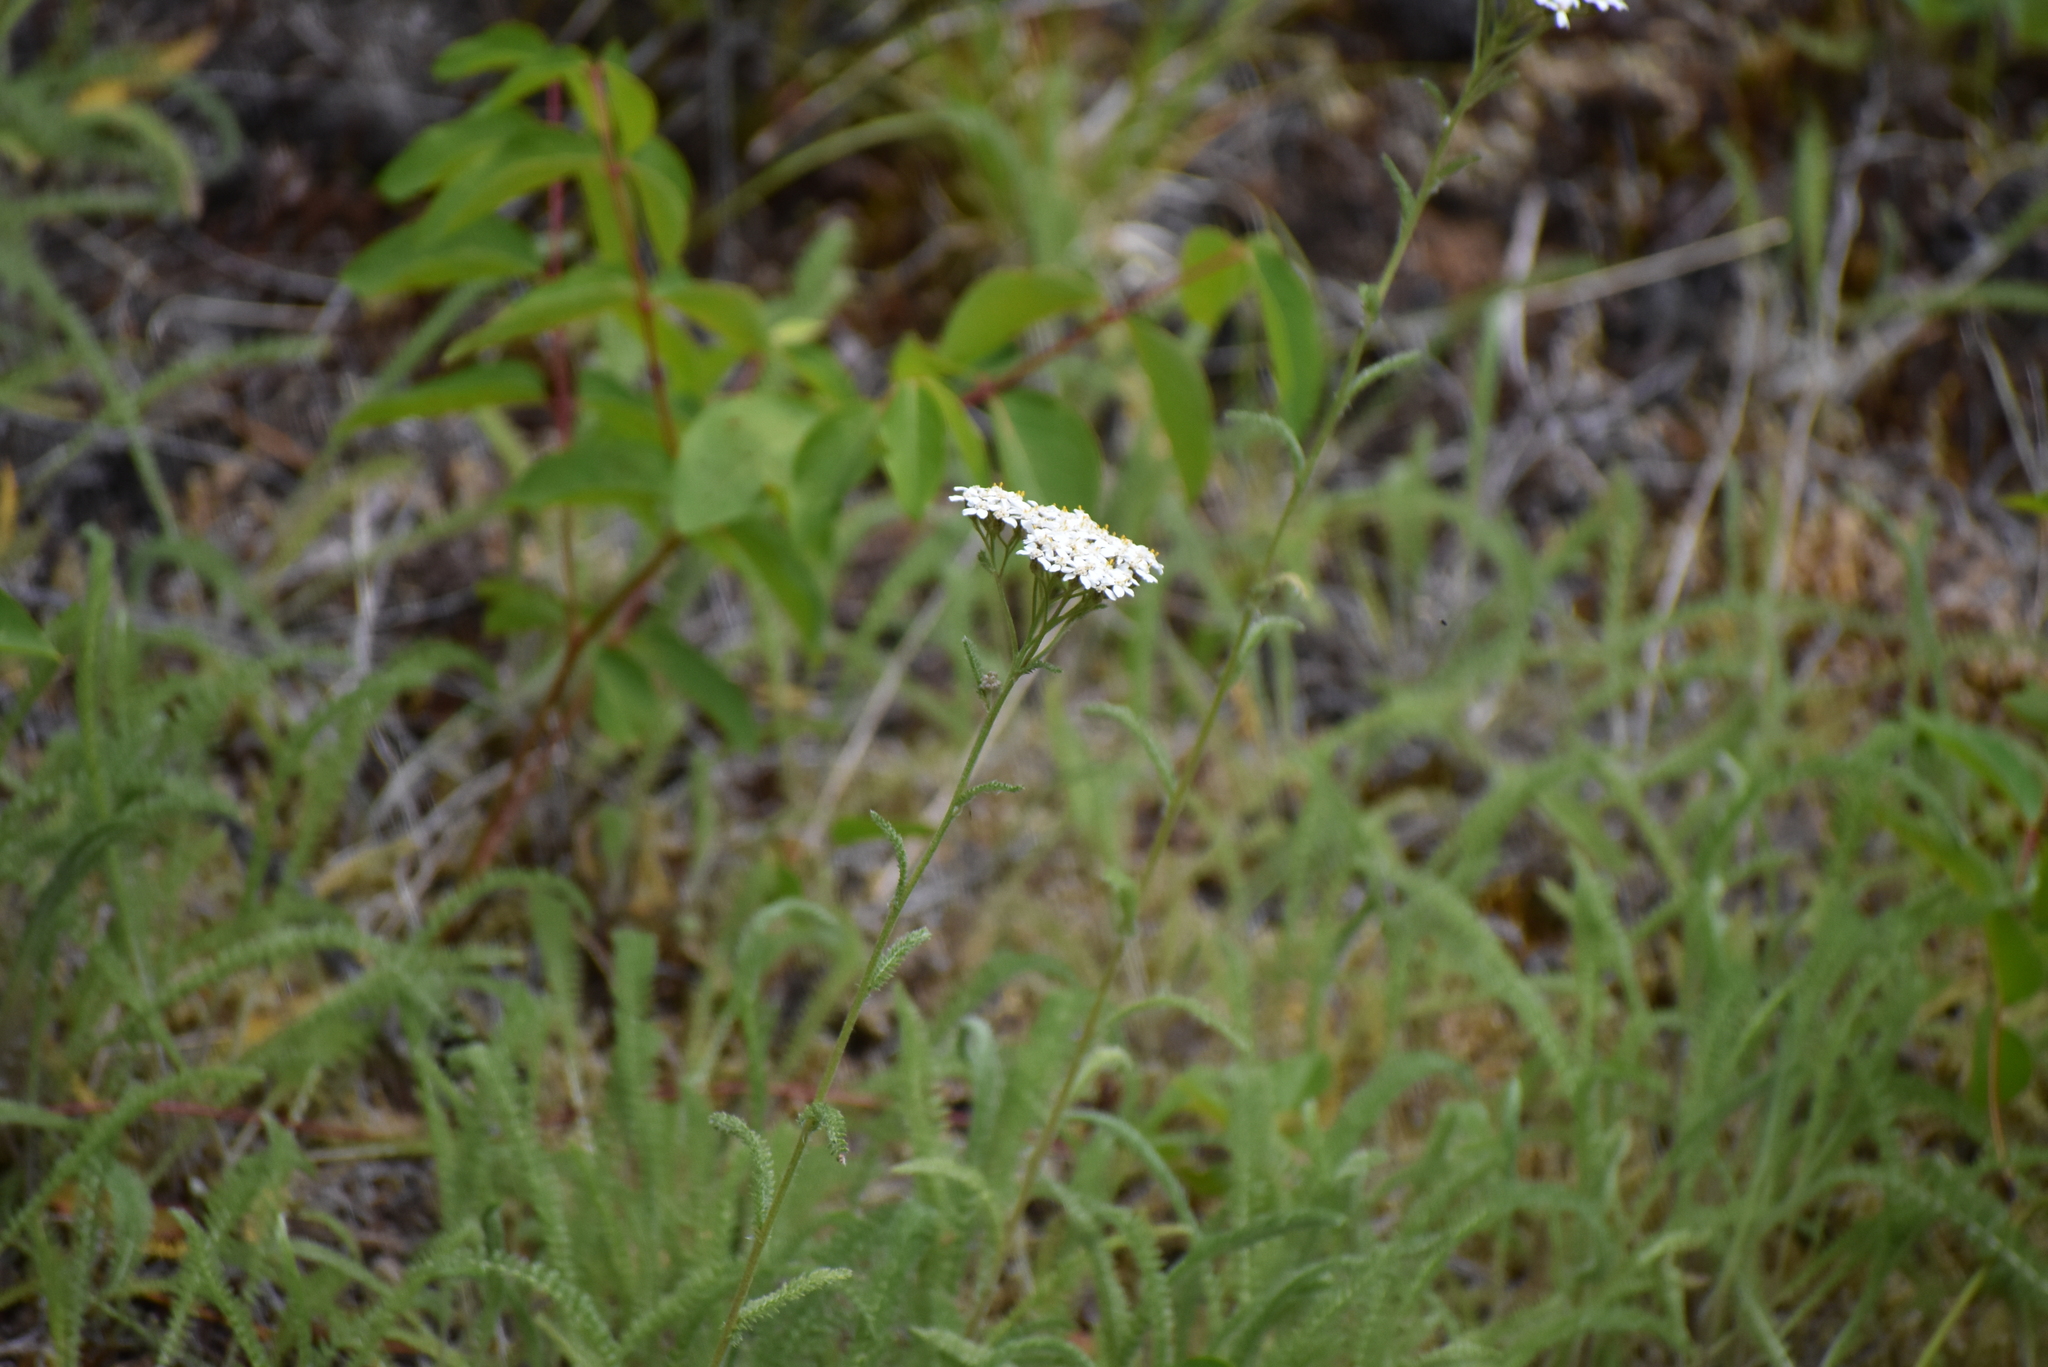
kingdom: Plantae
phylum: Tracheophyta
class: Magnoliopsida
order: Asterales
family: Asteraceae
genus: Achillea
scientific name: Achillea millefolium
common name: Yarrow
